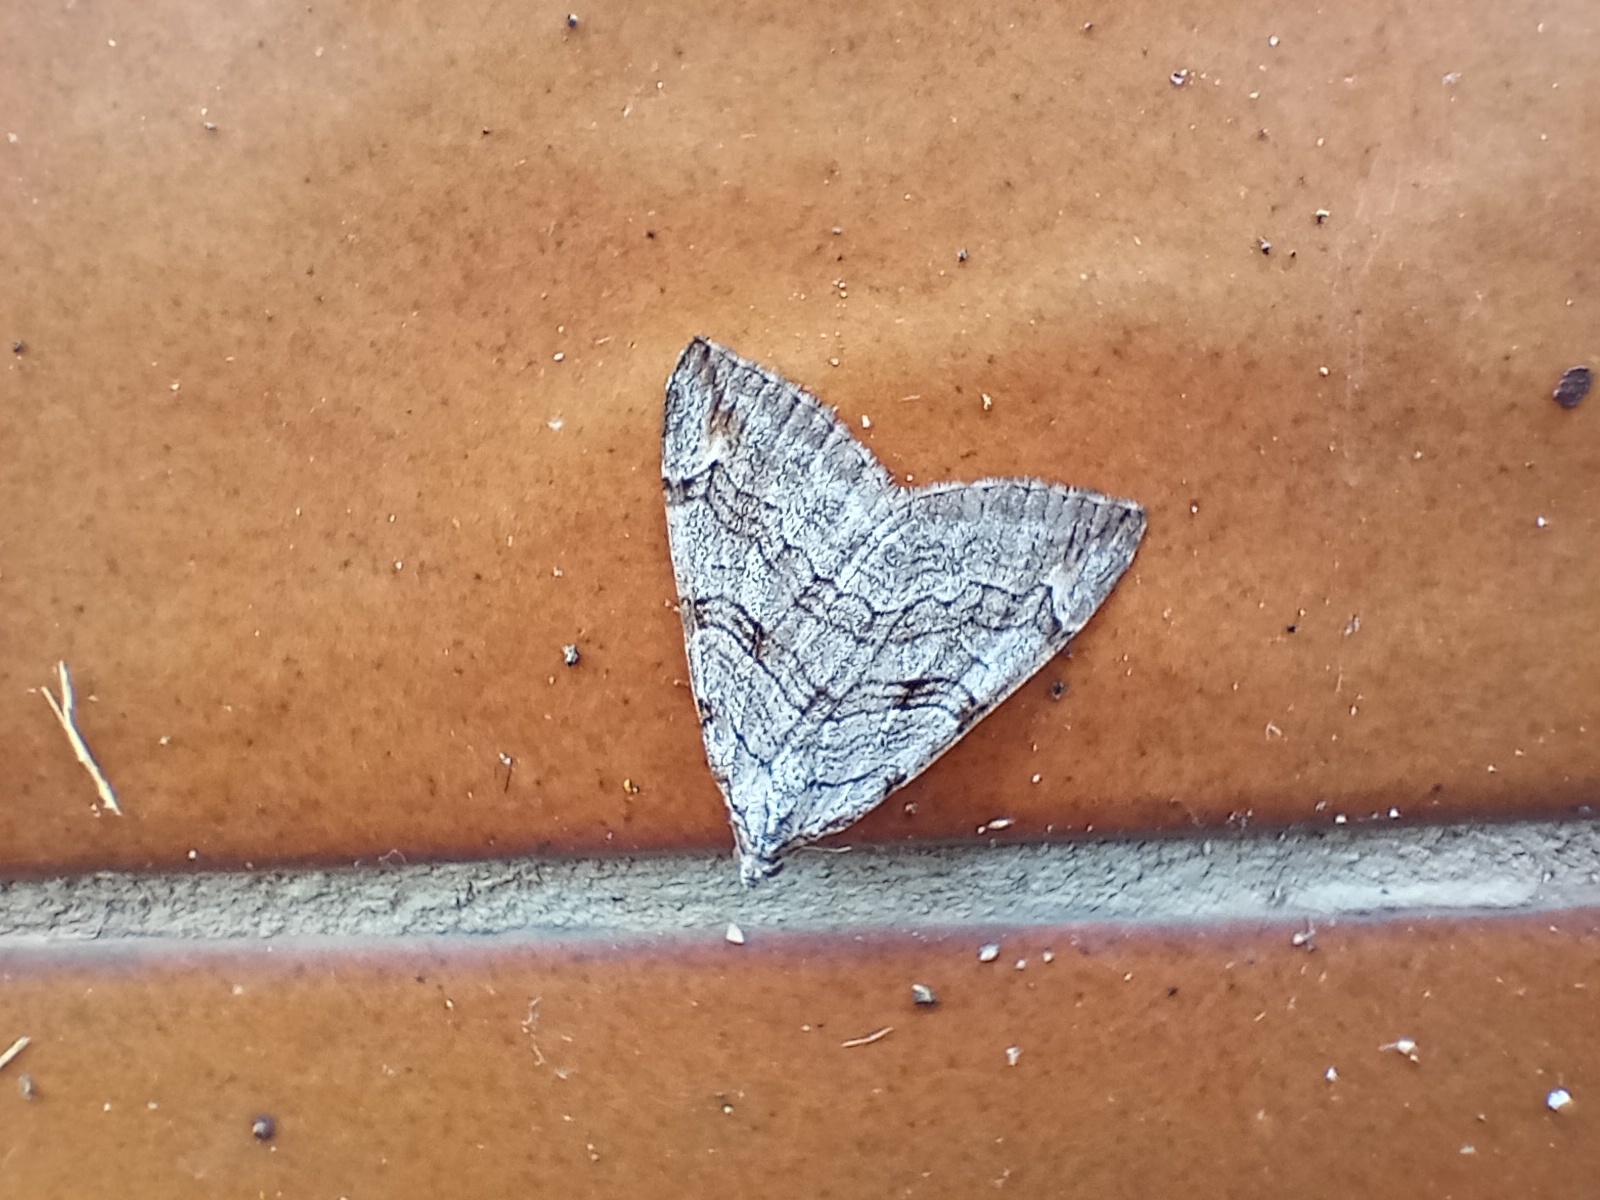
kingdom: Animalia
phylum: Arthropoda
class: Insecta
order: Lepidoptera
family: Geometridae
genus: Aplocera
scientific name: Aplocera plagiata
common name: Treble-bar
